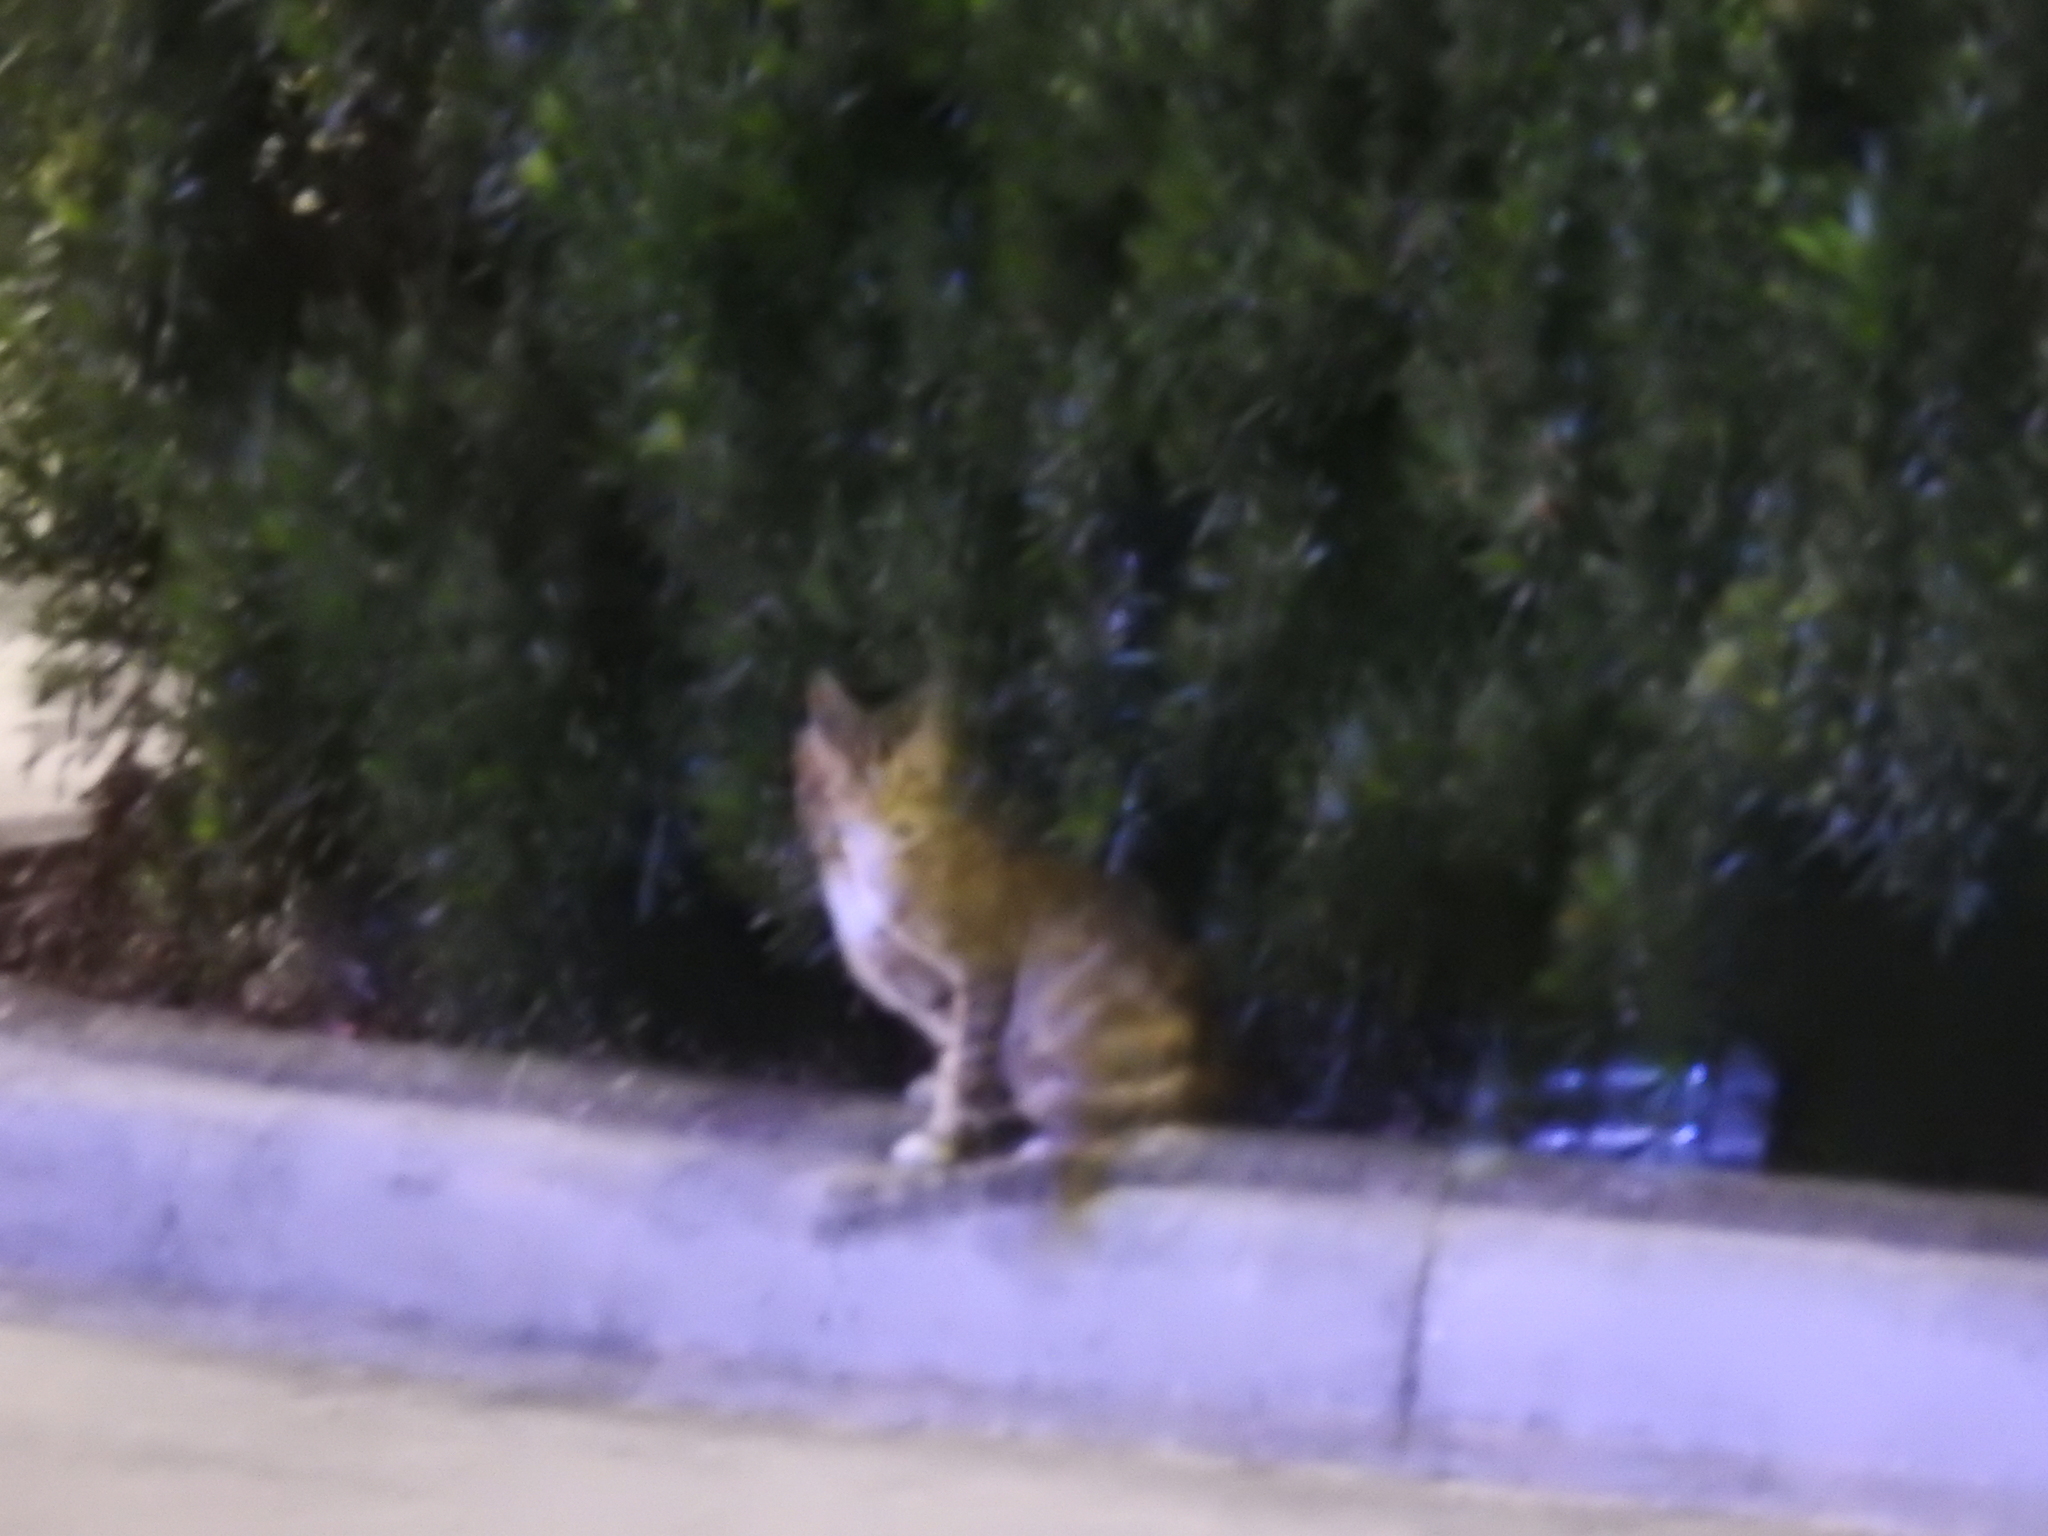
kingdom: Animalia
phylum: Chordata
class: Mammalia
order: Carnivora
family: Felidae
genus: Felis
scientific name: Felis catus
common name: Domestic cat
